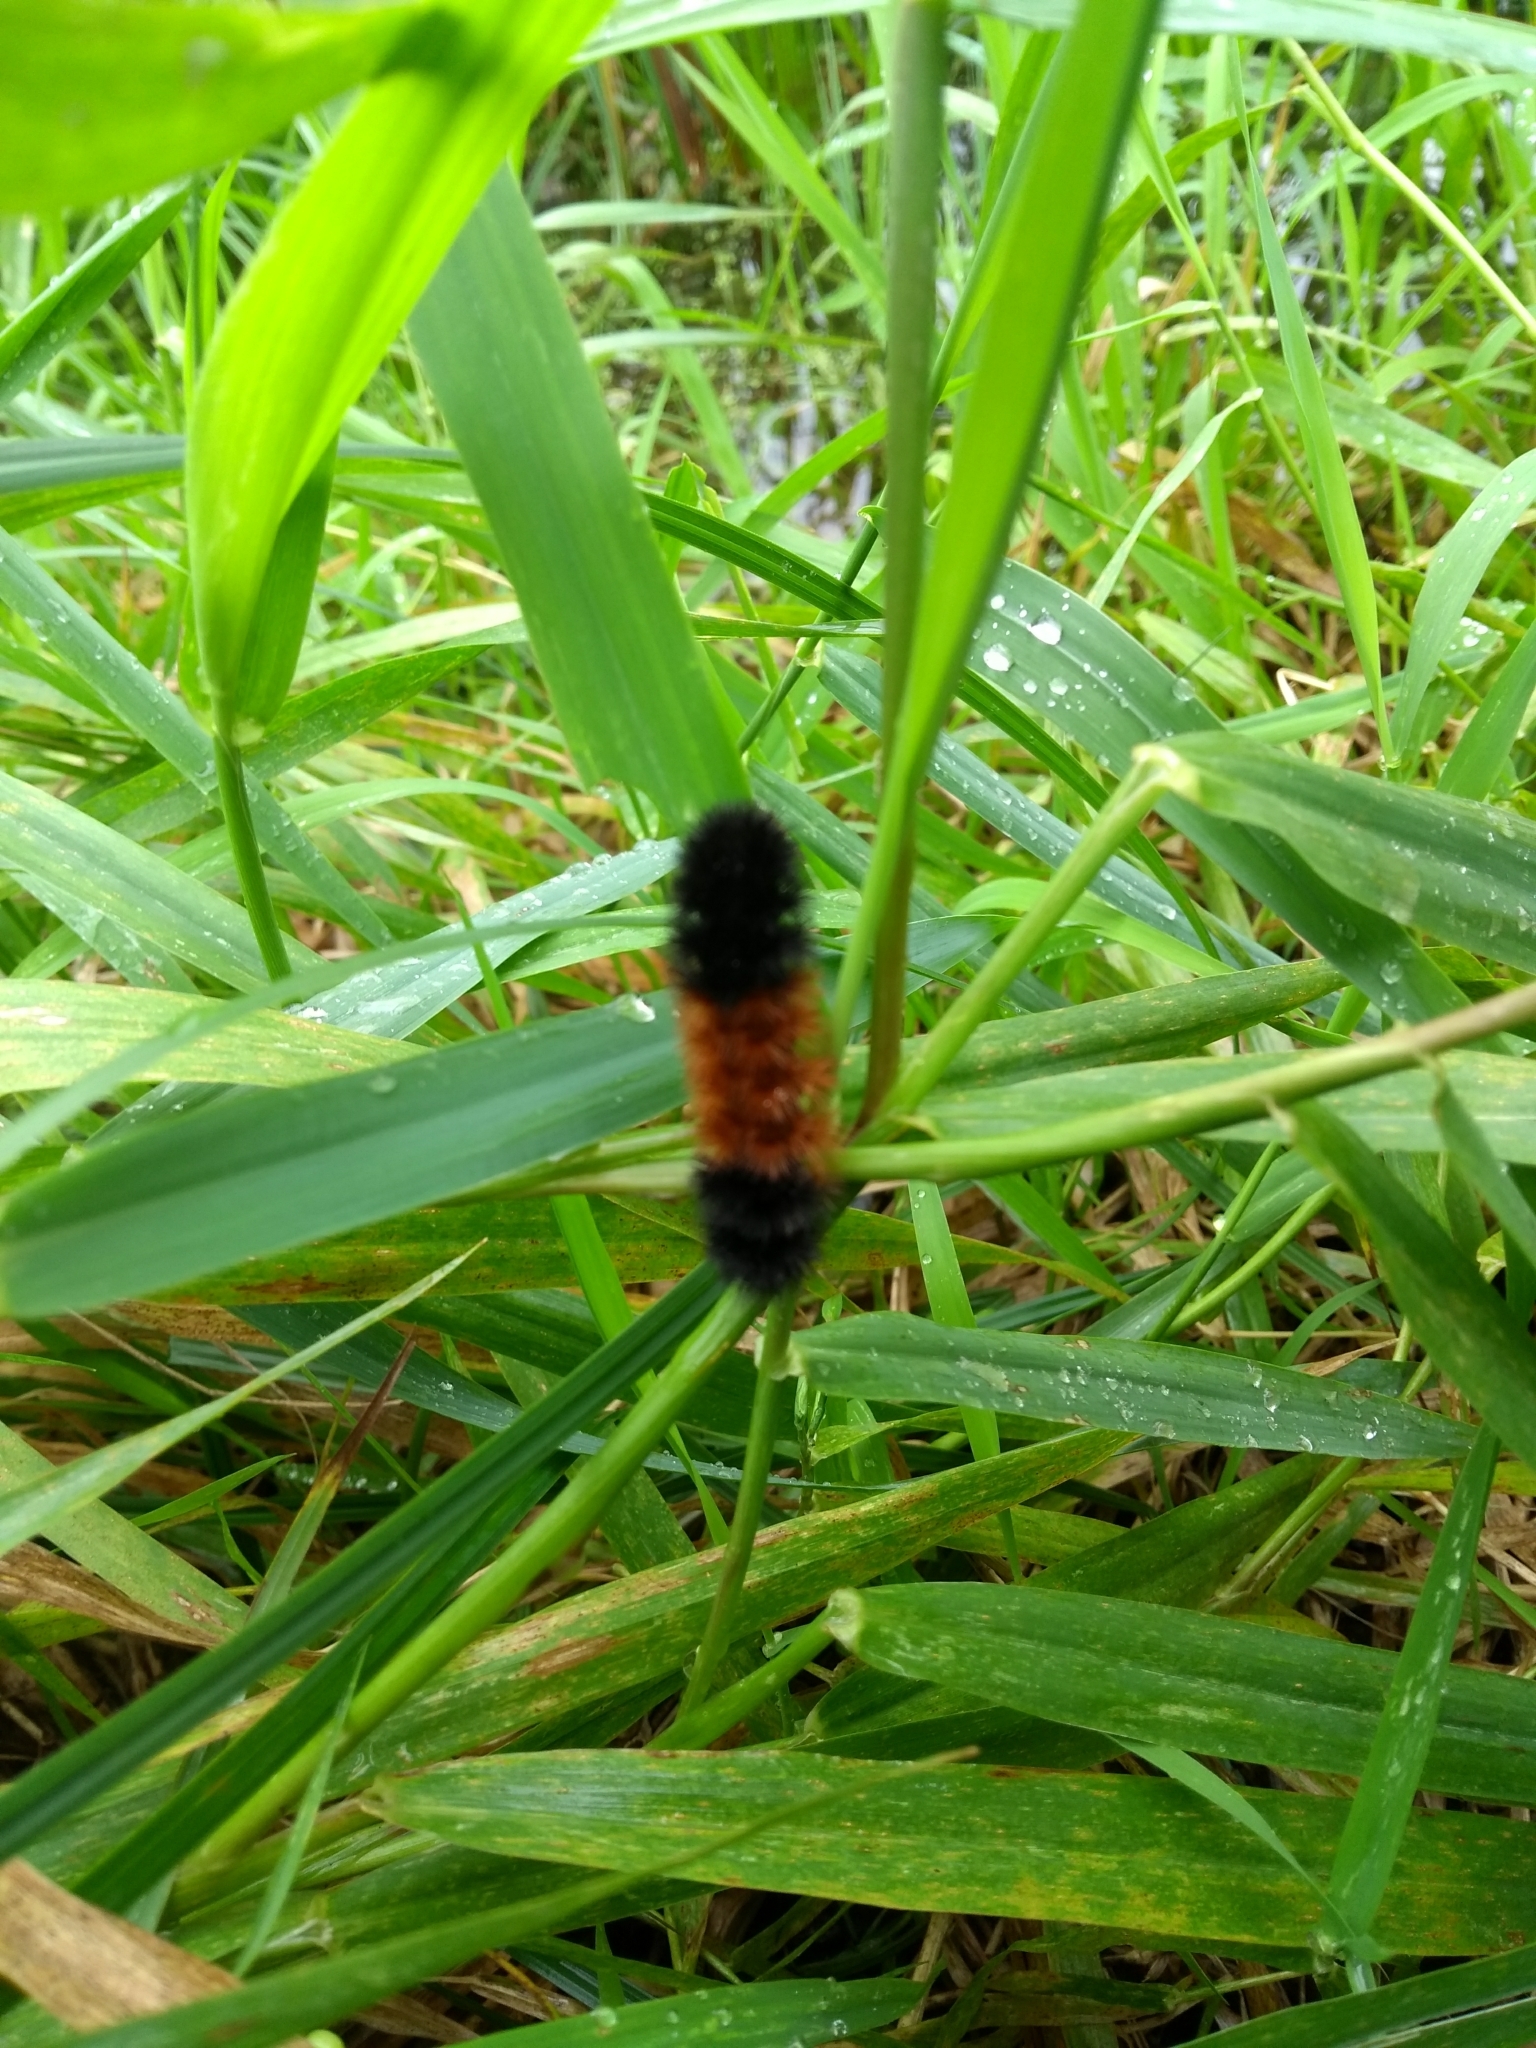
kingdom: Animalia
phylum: Arthropoda
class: Insecta
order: Lepidoptera
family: Erebidae
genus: Pyrrharctia
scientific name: Pyrrharctia isabella
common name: Isabella tiger moth
